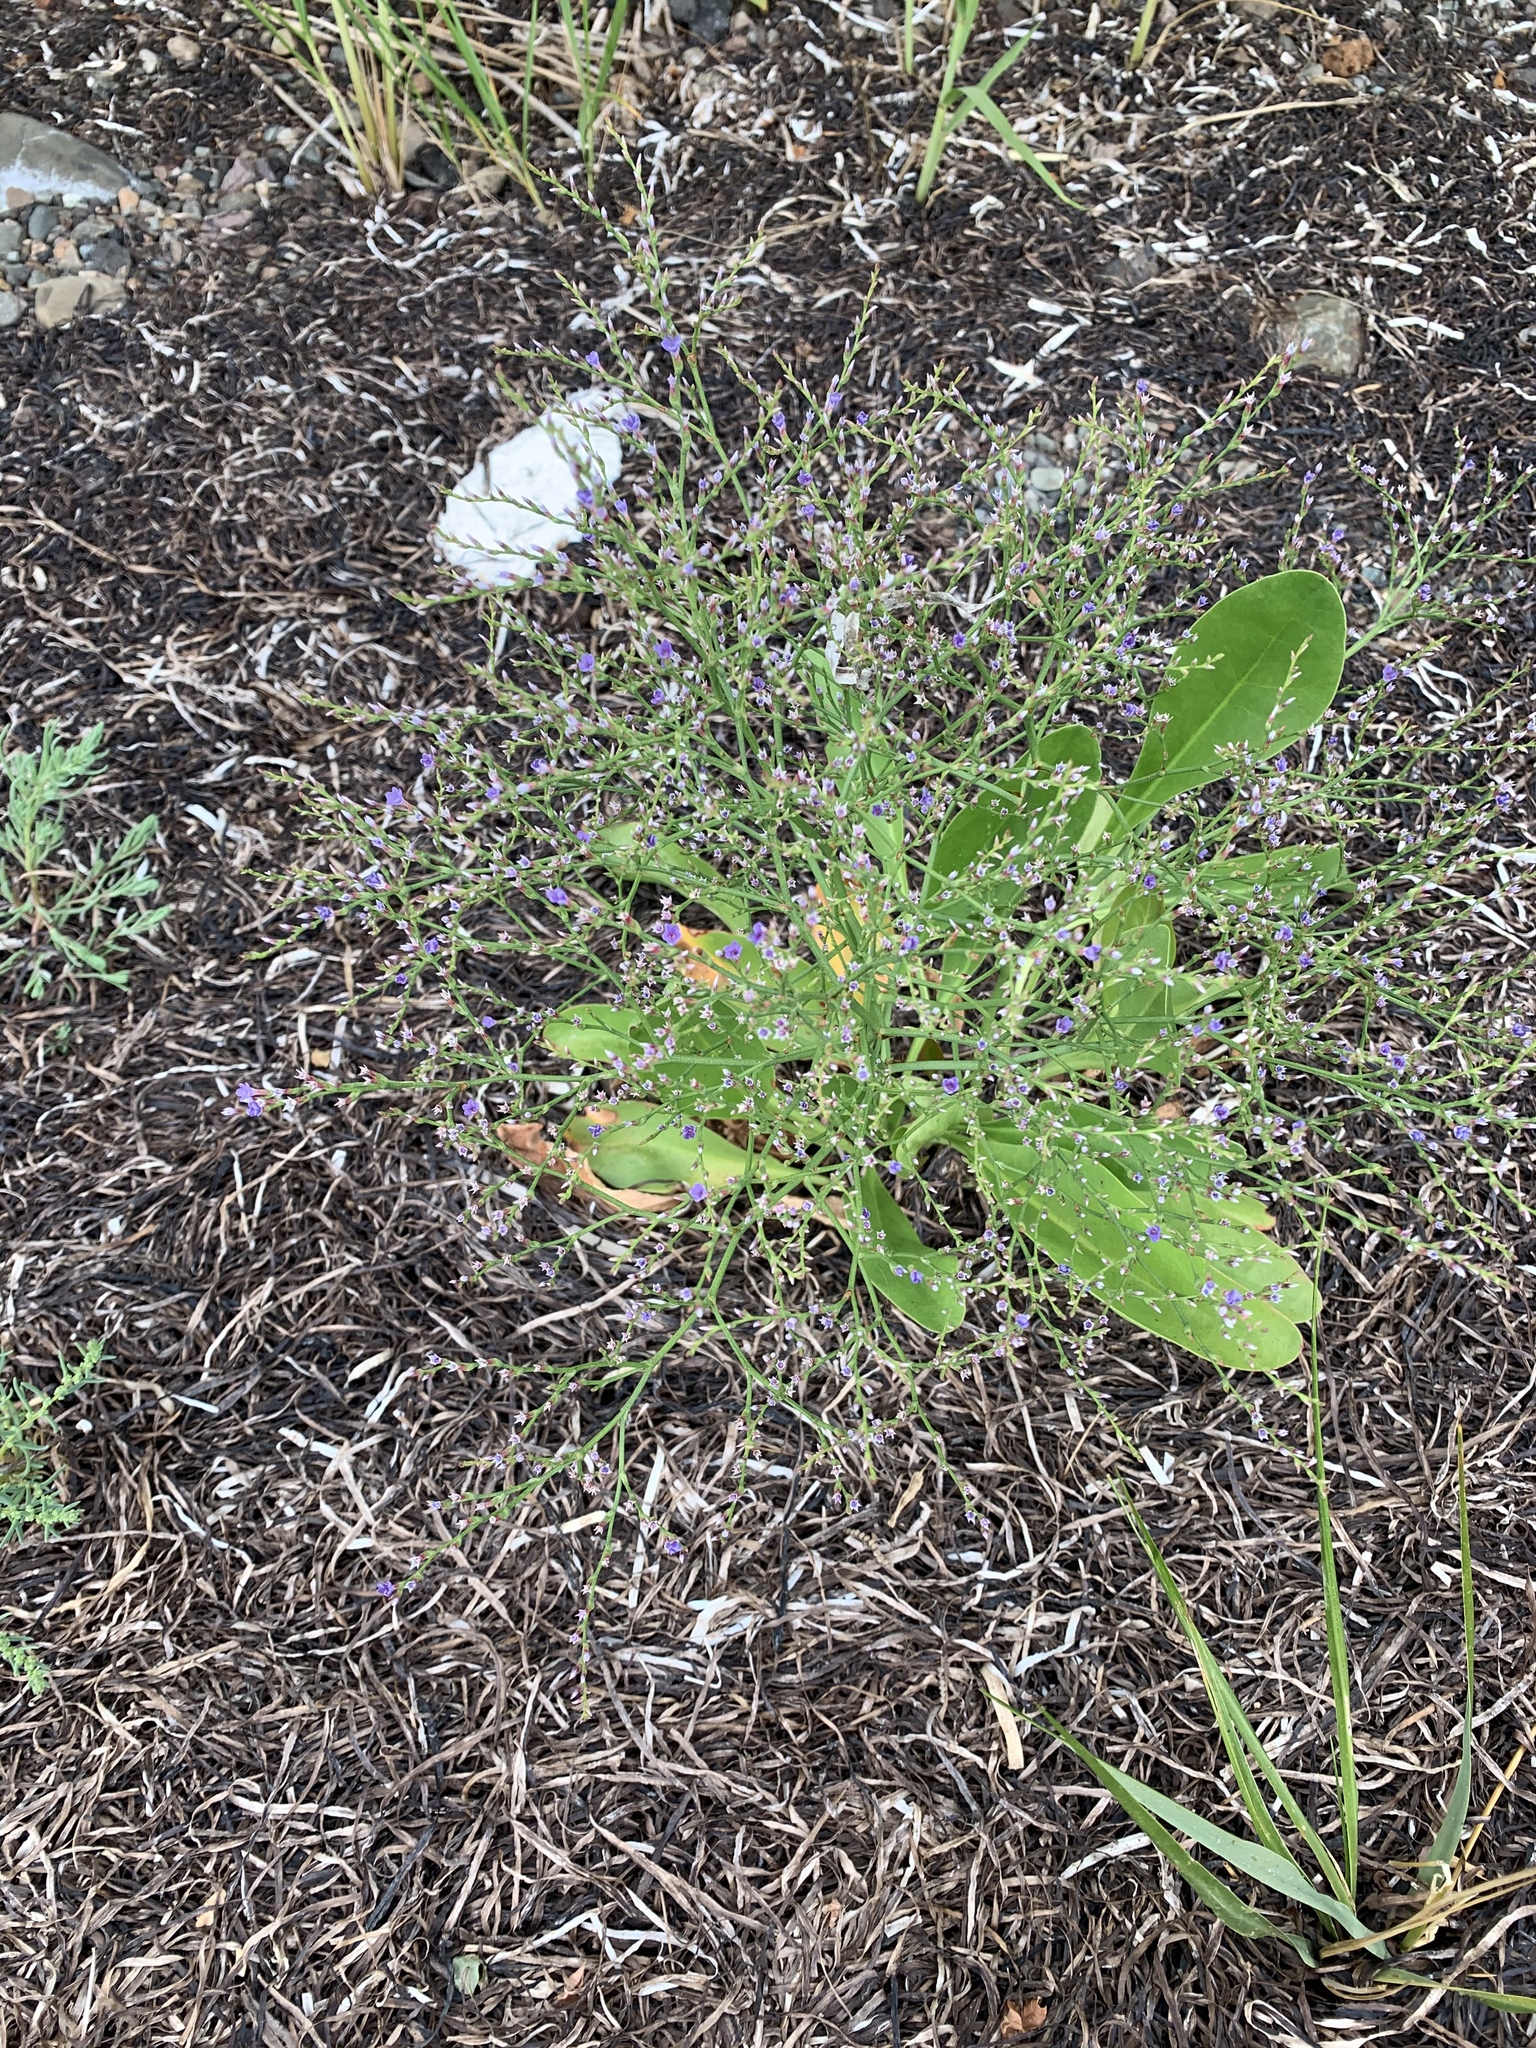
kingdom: Plantae
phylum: Tracheophyta
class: Magnoliopsida
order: Caryophyllales
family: Plumbaginaceae
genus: Limonium
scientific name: Limonium carolinianum
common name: Carolina sea lavender
